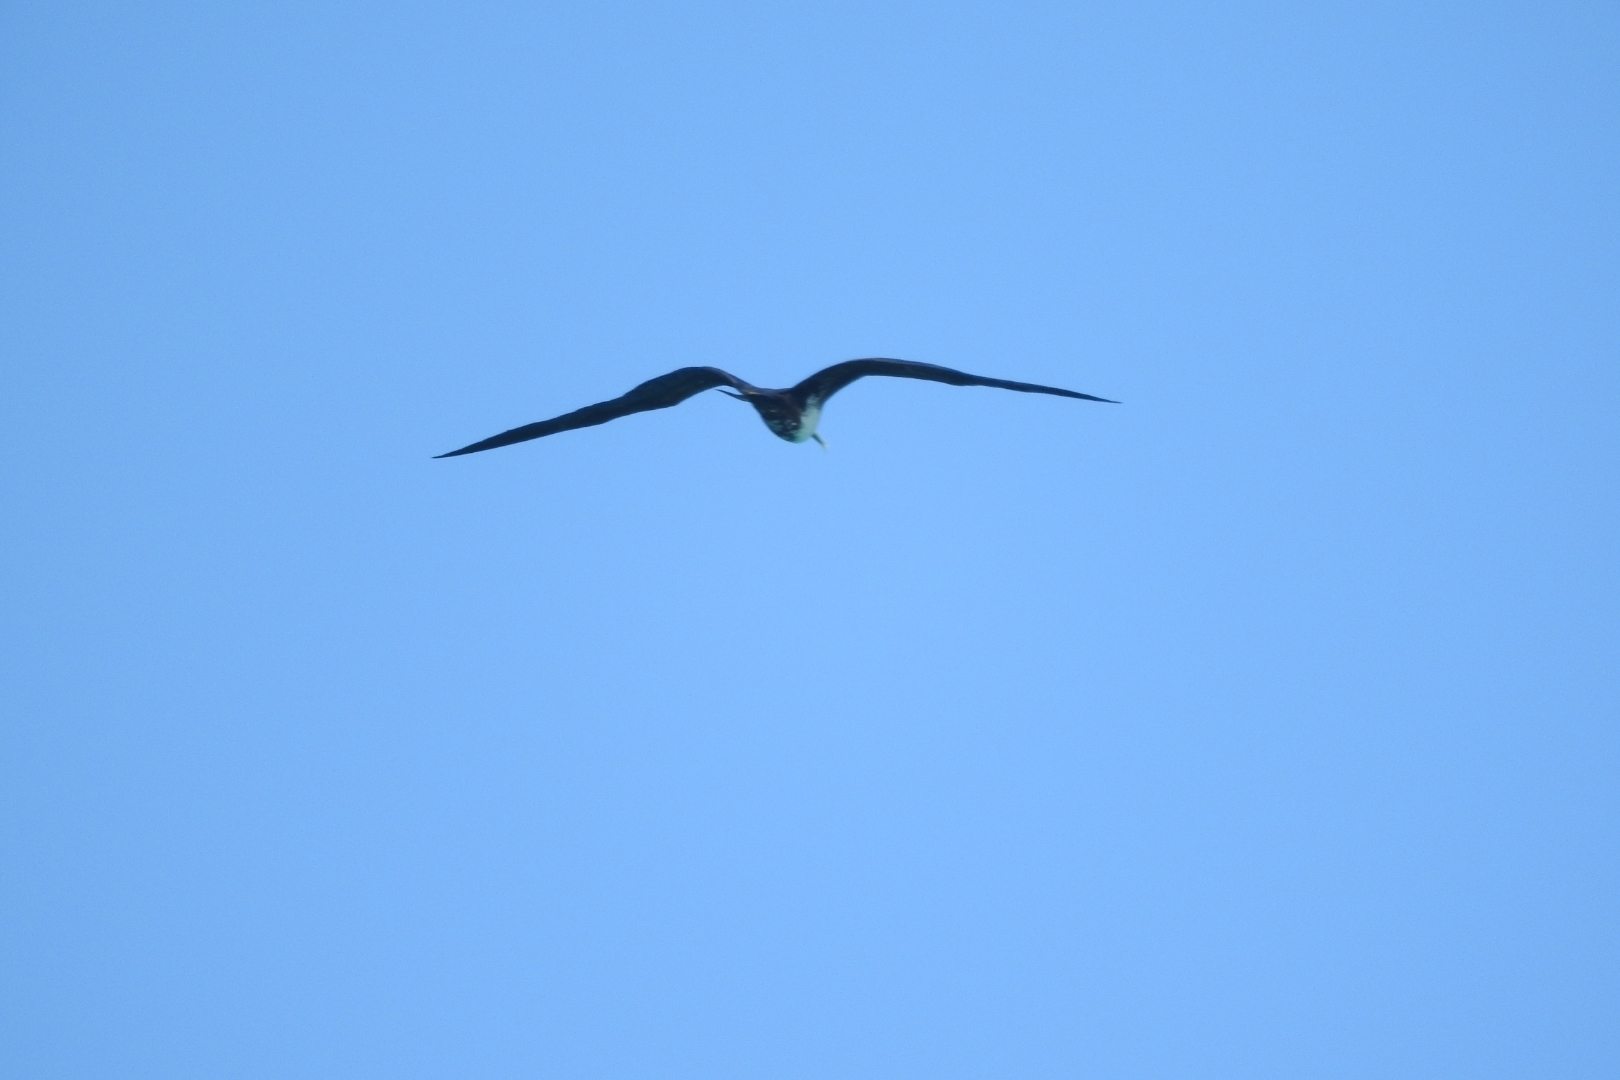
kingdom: Animalia
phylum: Chordata
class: Aves
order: Suliformes
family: Fregatidae
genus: Fregata
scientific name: Fregata magnificens
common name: Magnificent frigatebird
